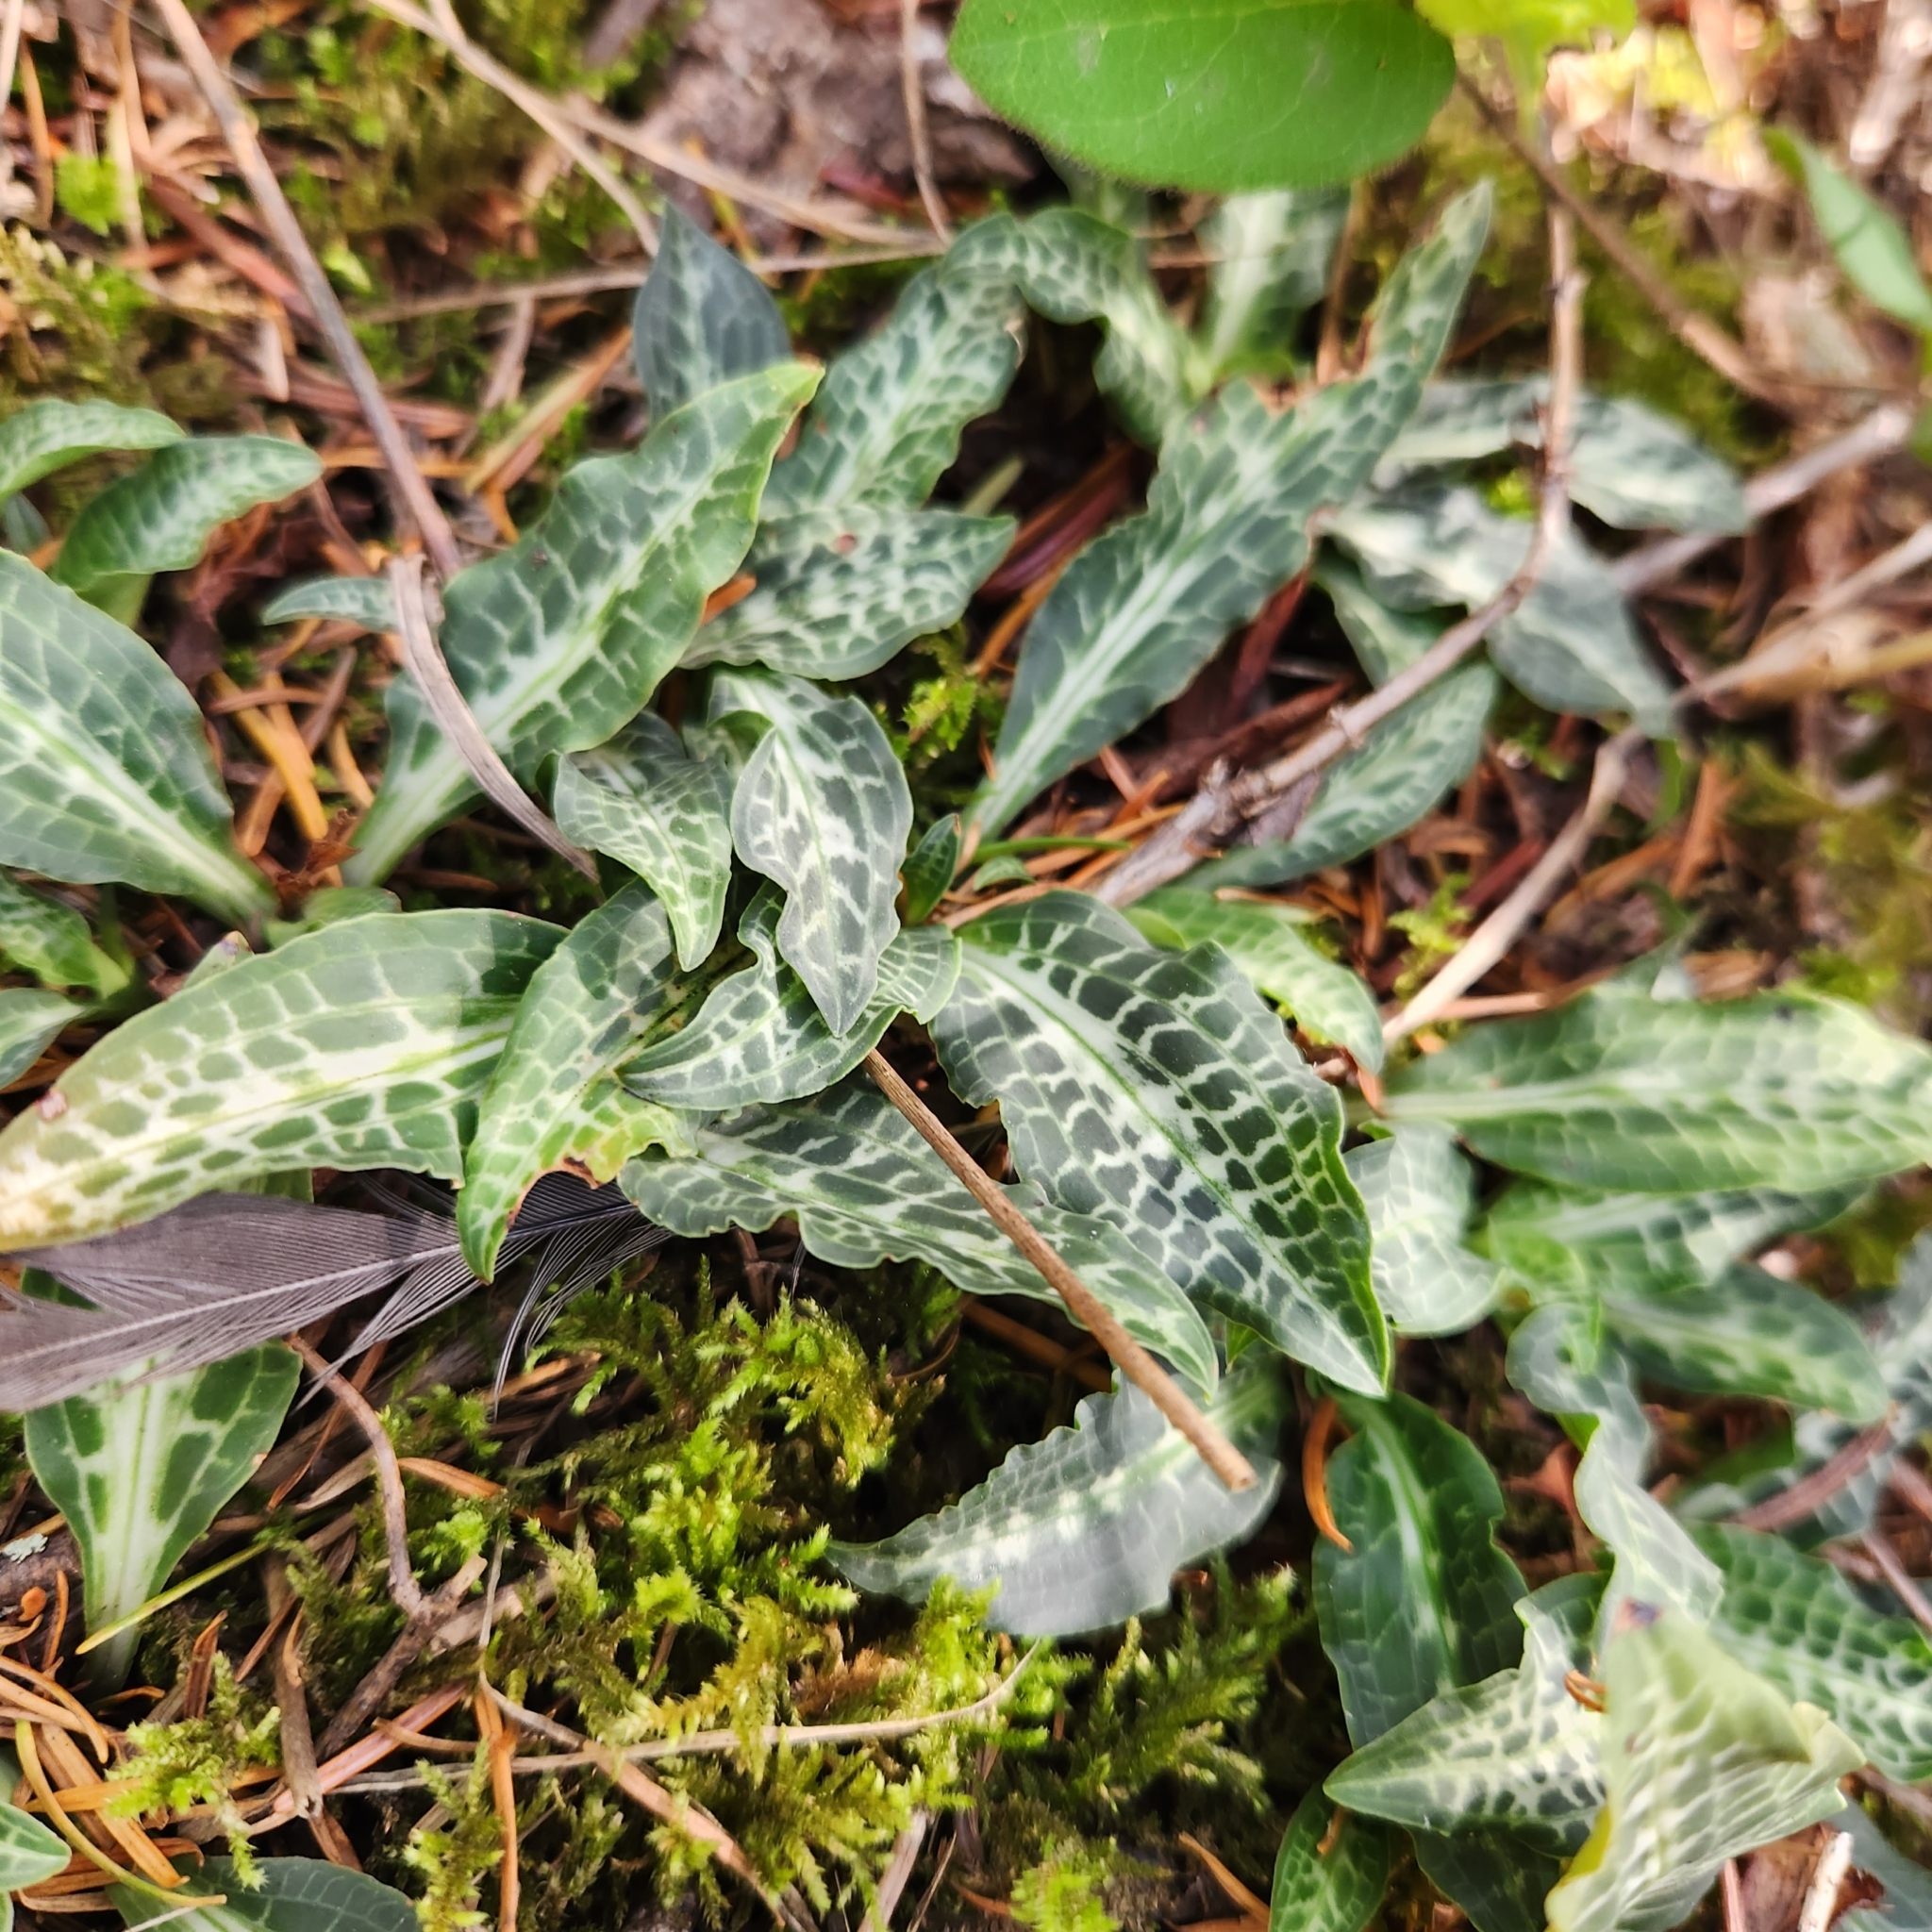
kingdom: Plantae
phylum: Tracheophyta
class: Liliopsida
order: Asparagales
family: Orchidaceae
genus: Goodyera
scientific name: Goodyera oblongifolia
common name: Giant rattlesnake-plantain
